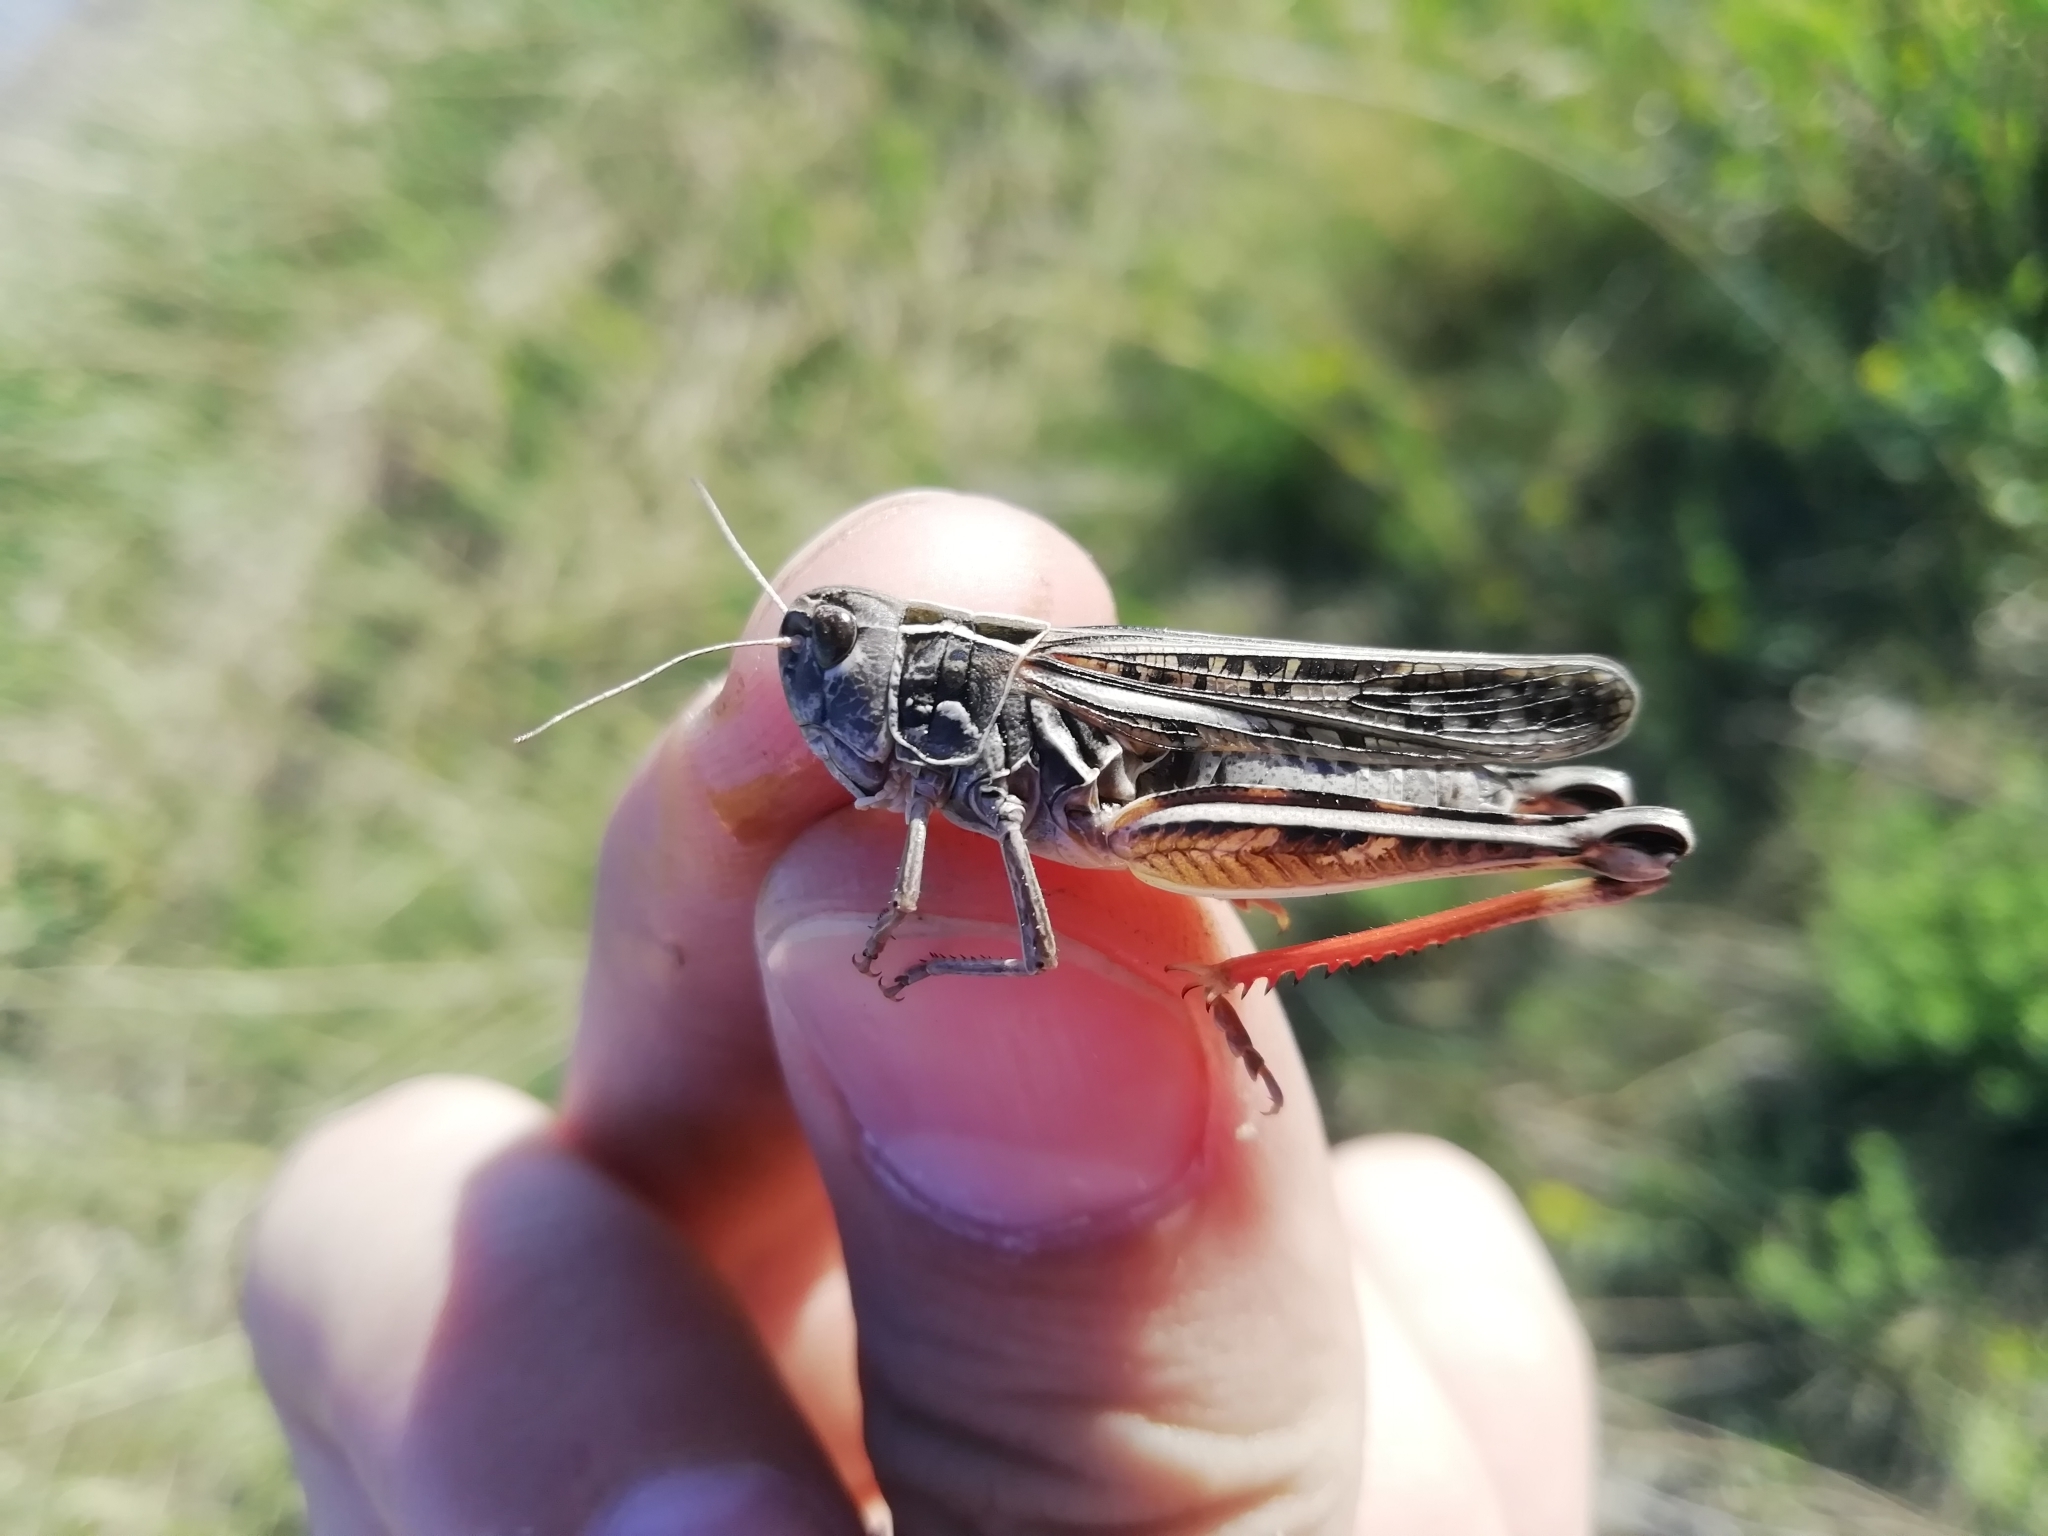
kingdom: Animalia
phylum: Arthropoda
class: Insecta
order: Orthoptera
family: Acrididae
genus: Arcyptera
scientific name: Arcyptera microptera
